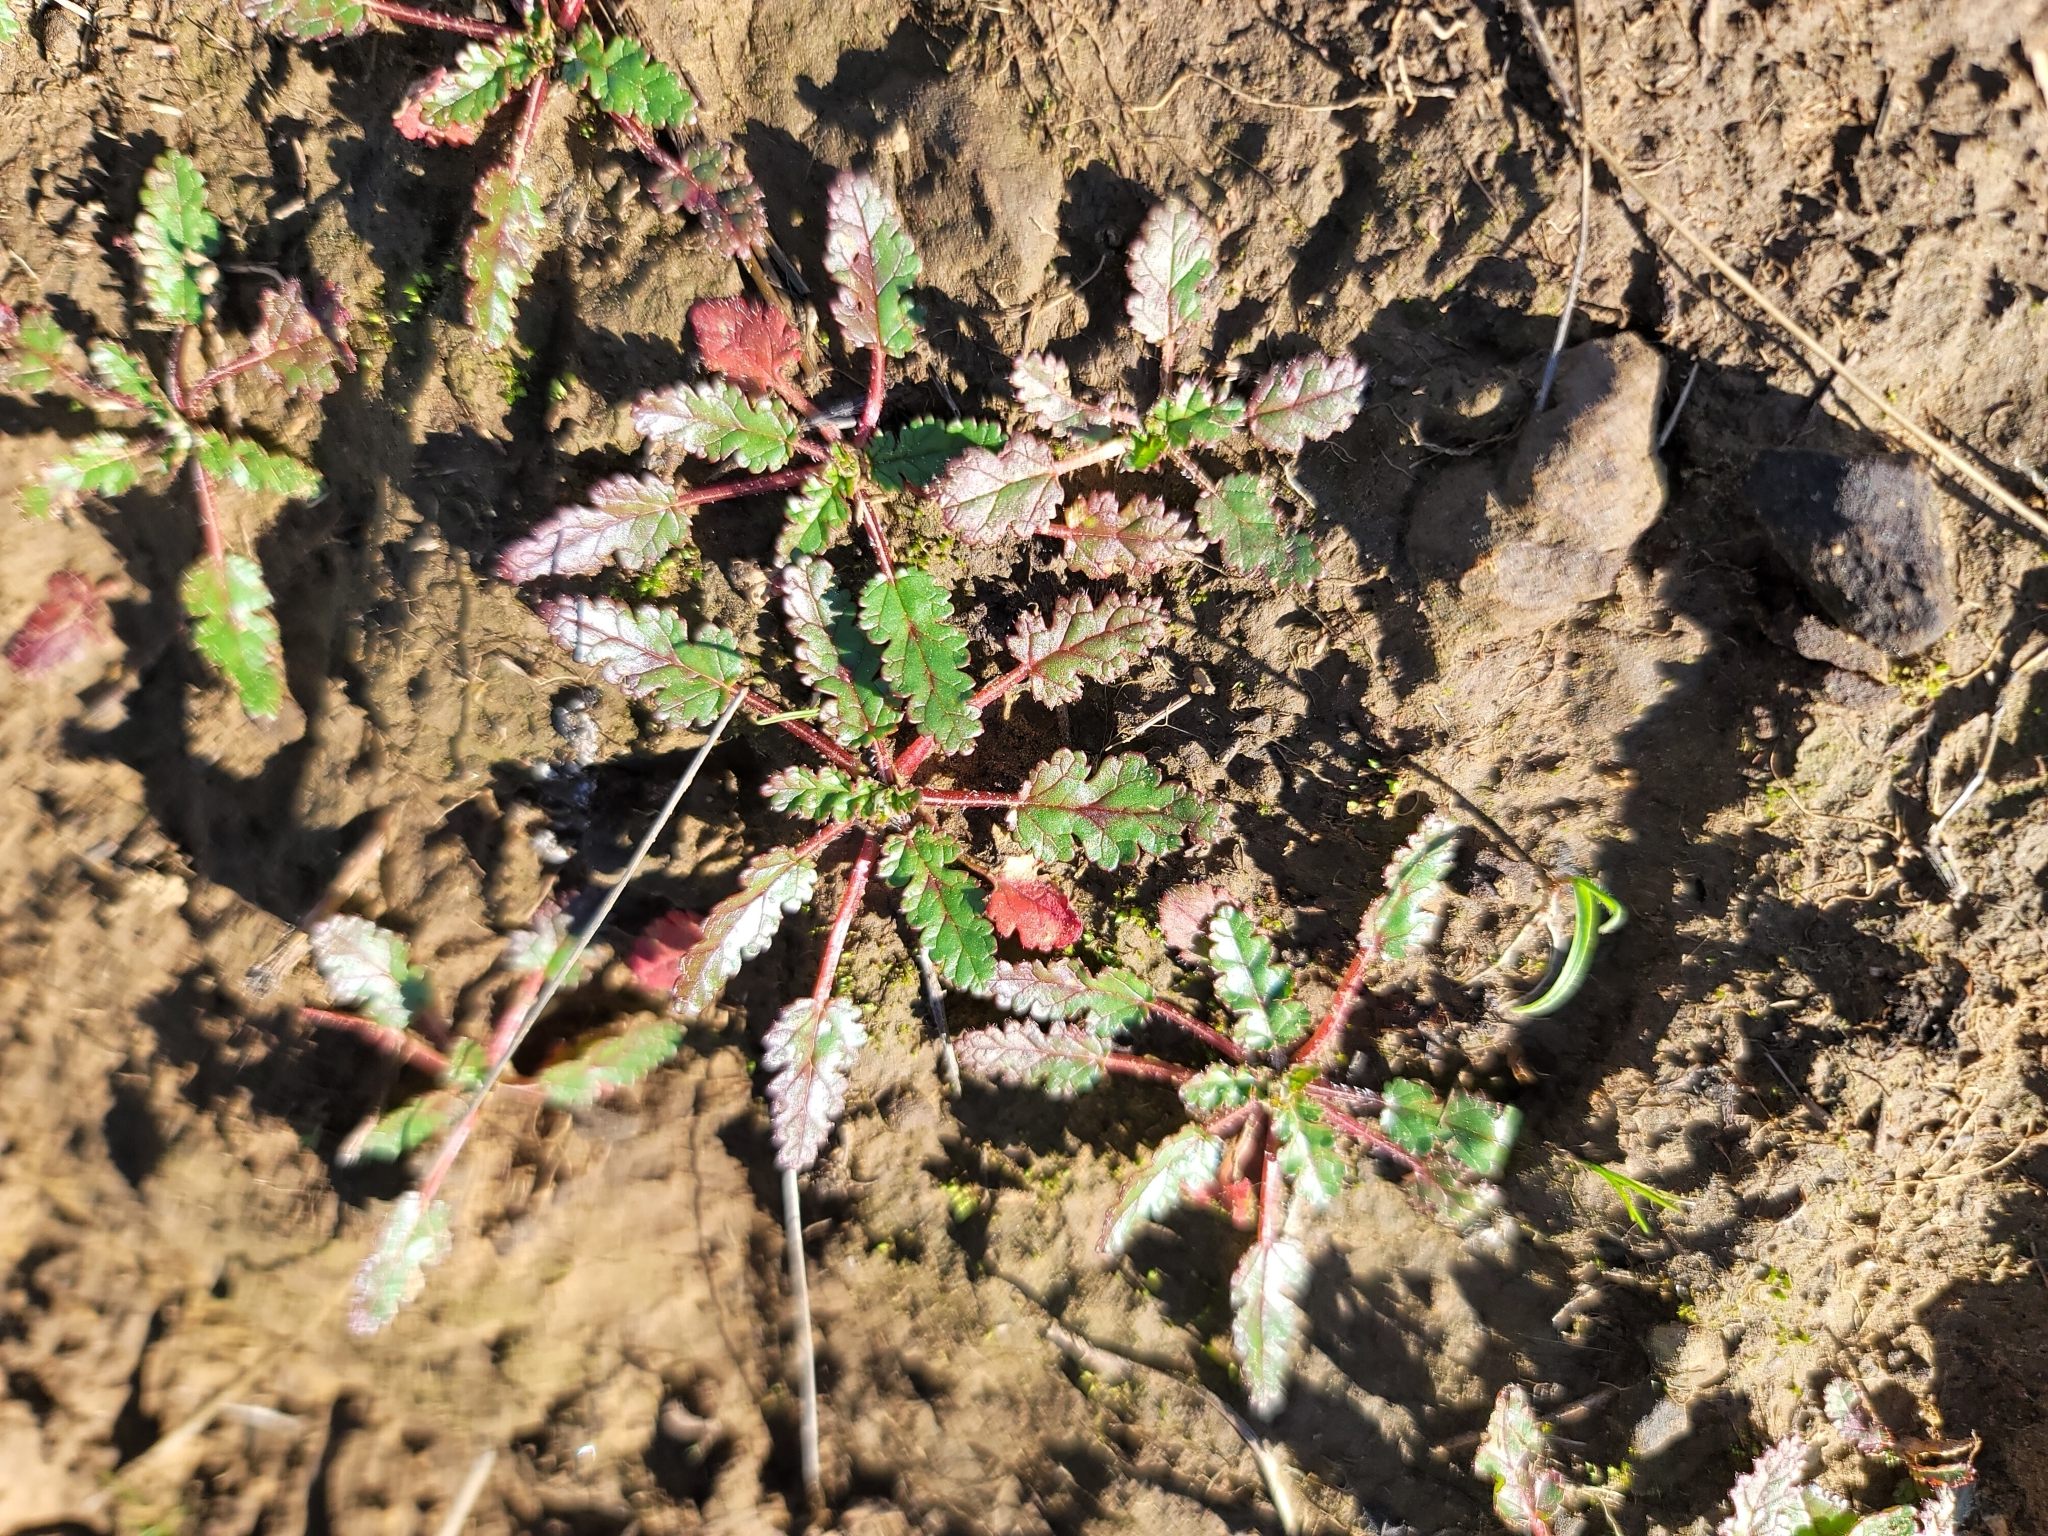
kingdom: Plantae
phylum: Tracheophyta
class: Magnoliopsida
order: Geraniales
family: Geraniaceae
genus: Erodium
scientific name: Erodium
